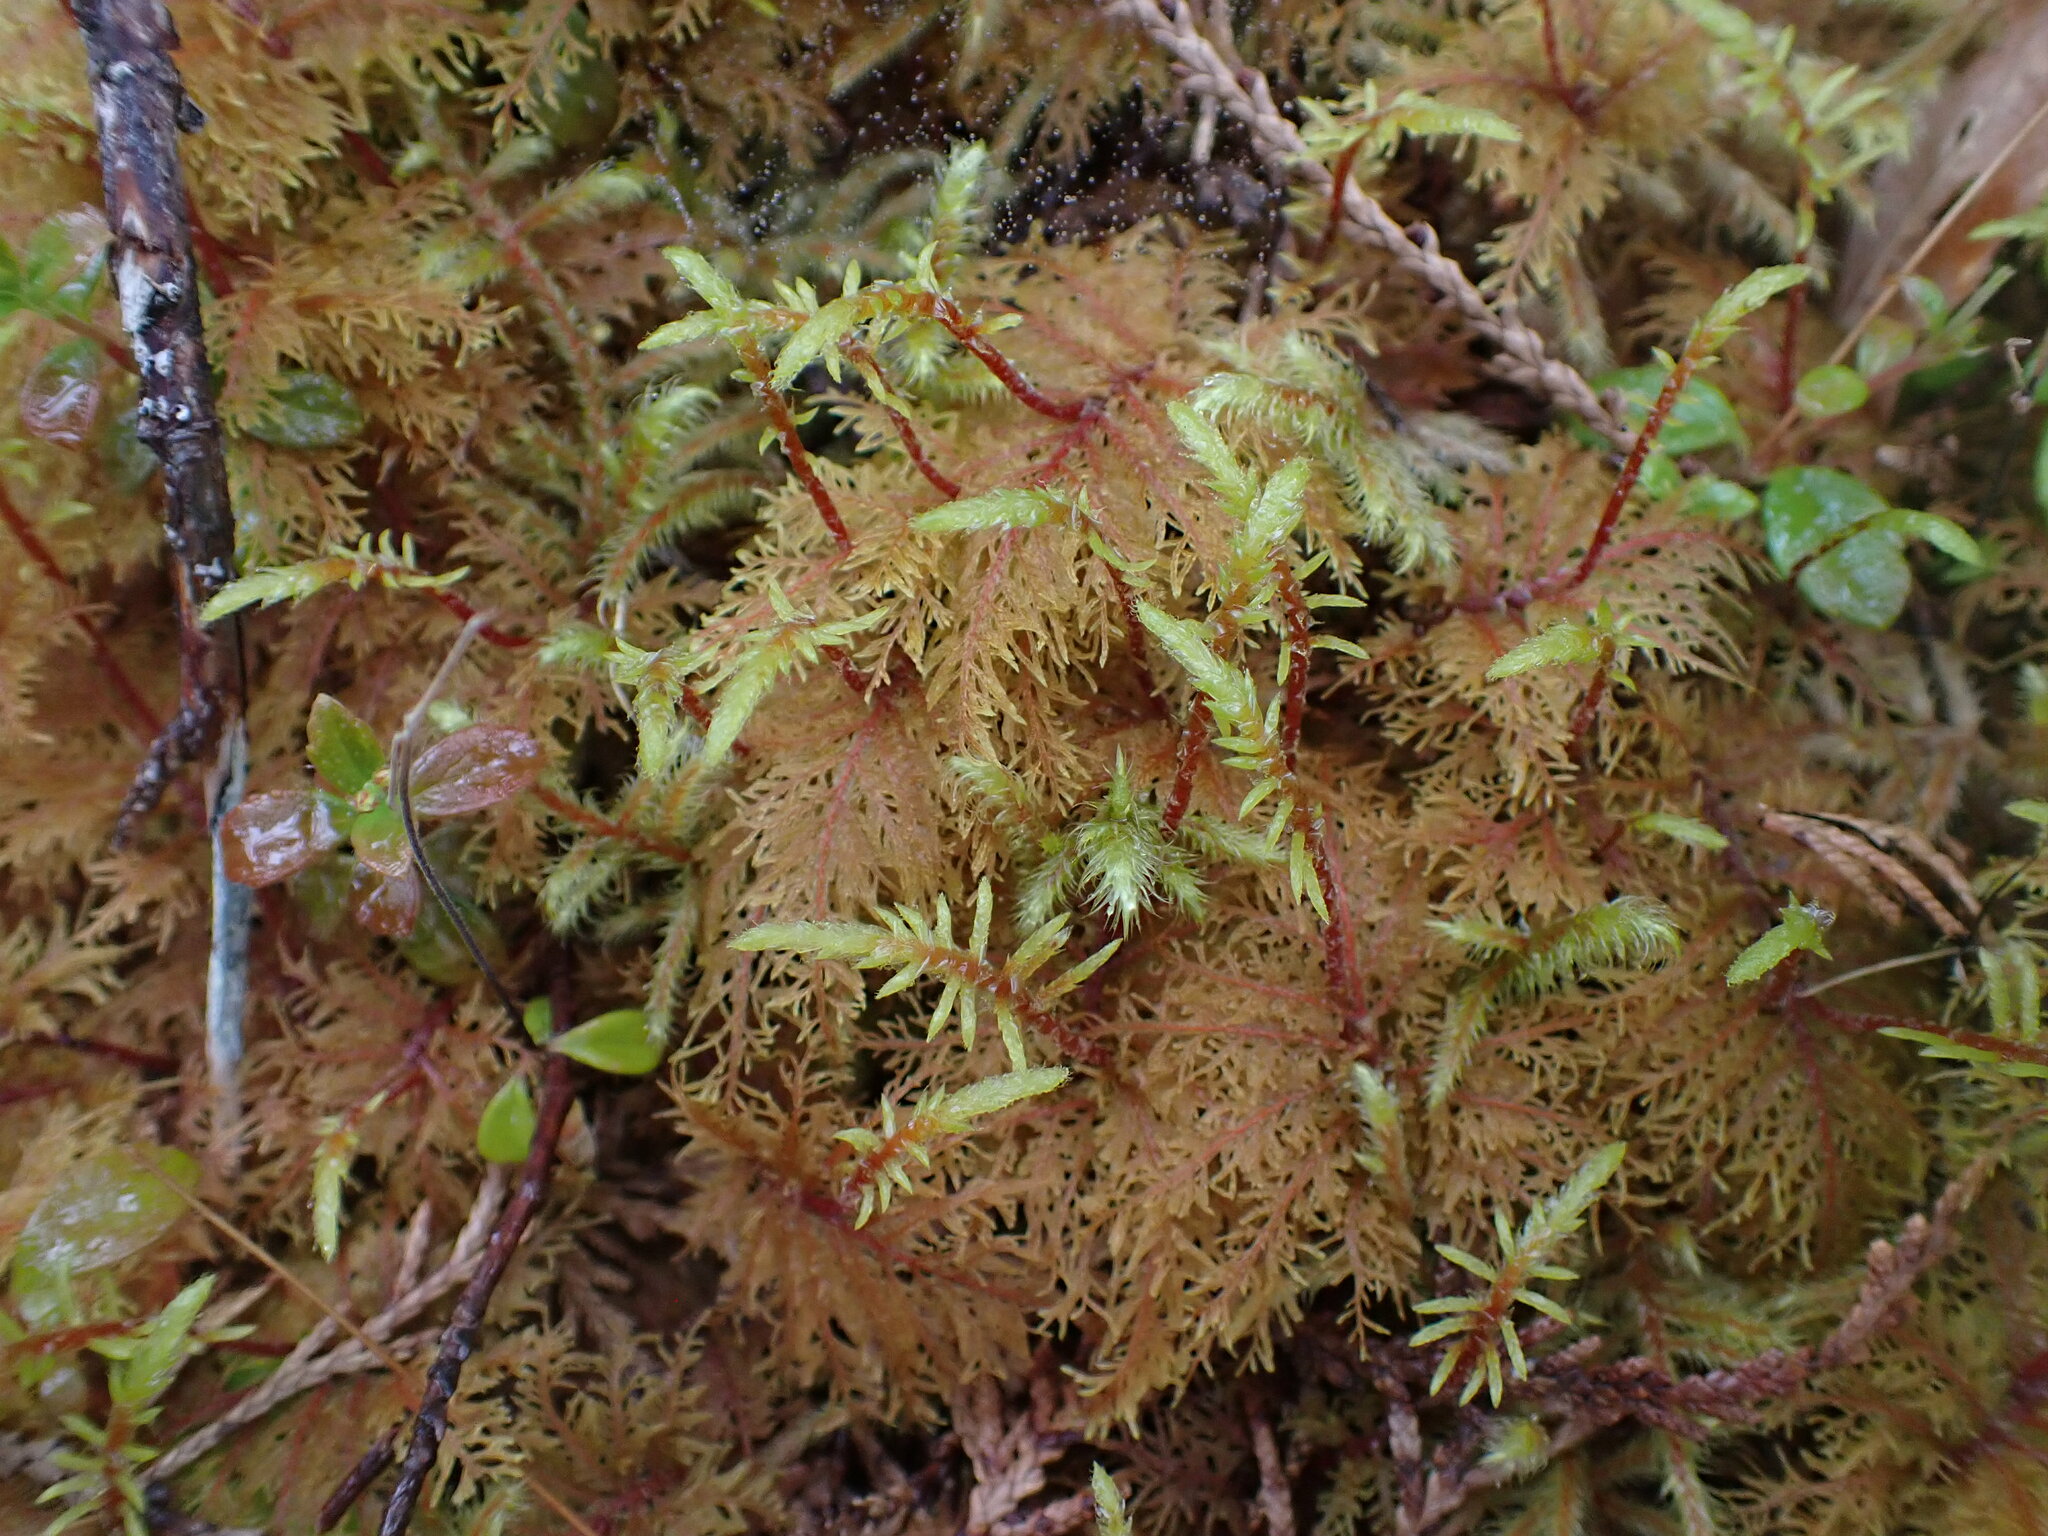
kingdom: Plantae
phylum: Bryophyta
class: Bryopsida
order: Hypnales
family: Hylocomiaceae
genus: Hylocomium
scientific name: Hylocomium splendens
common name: Stairstep moss
